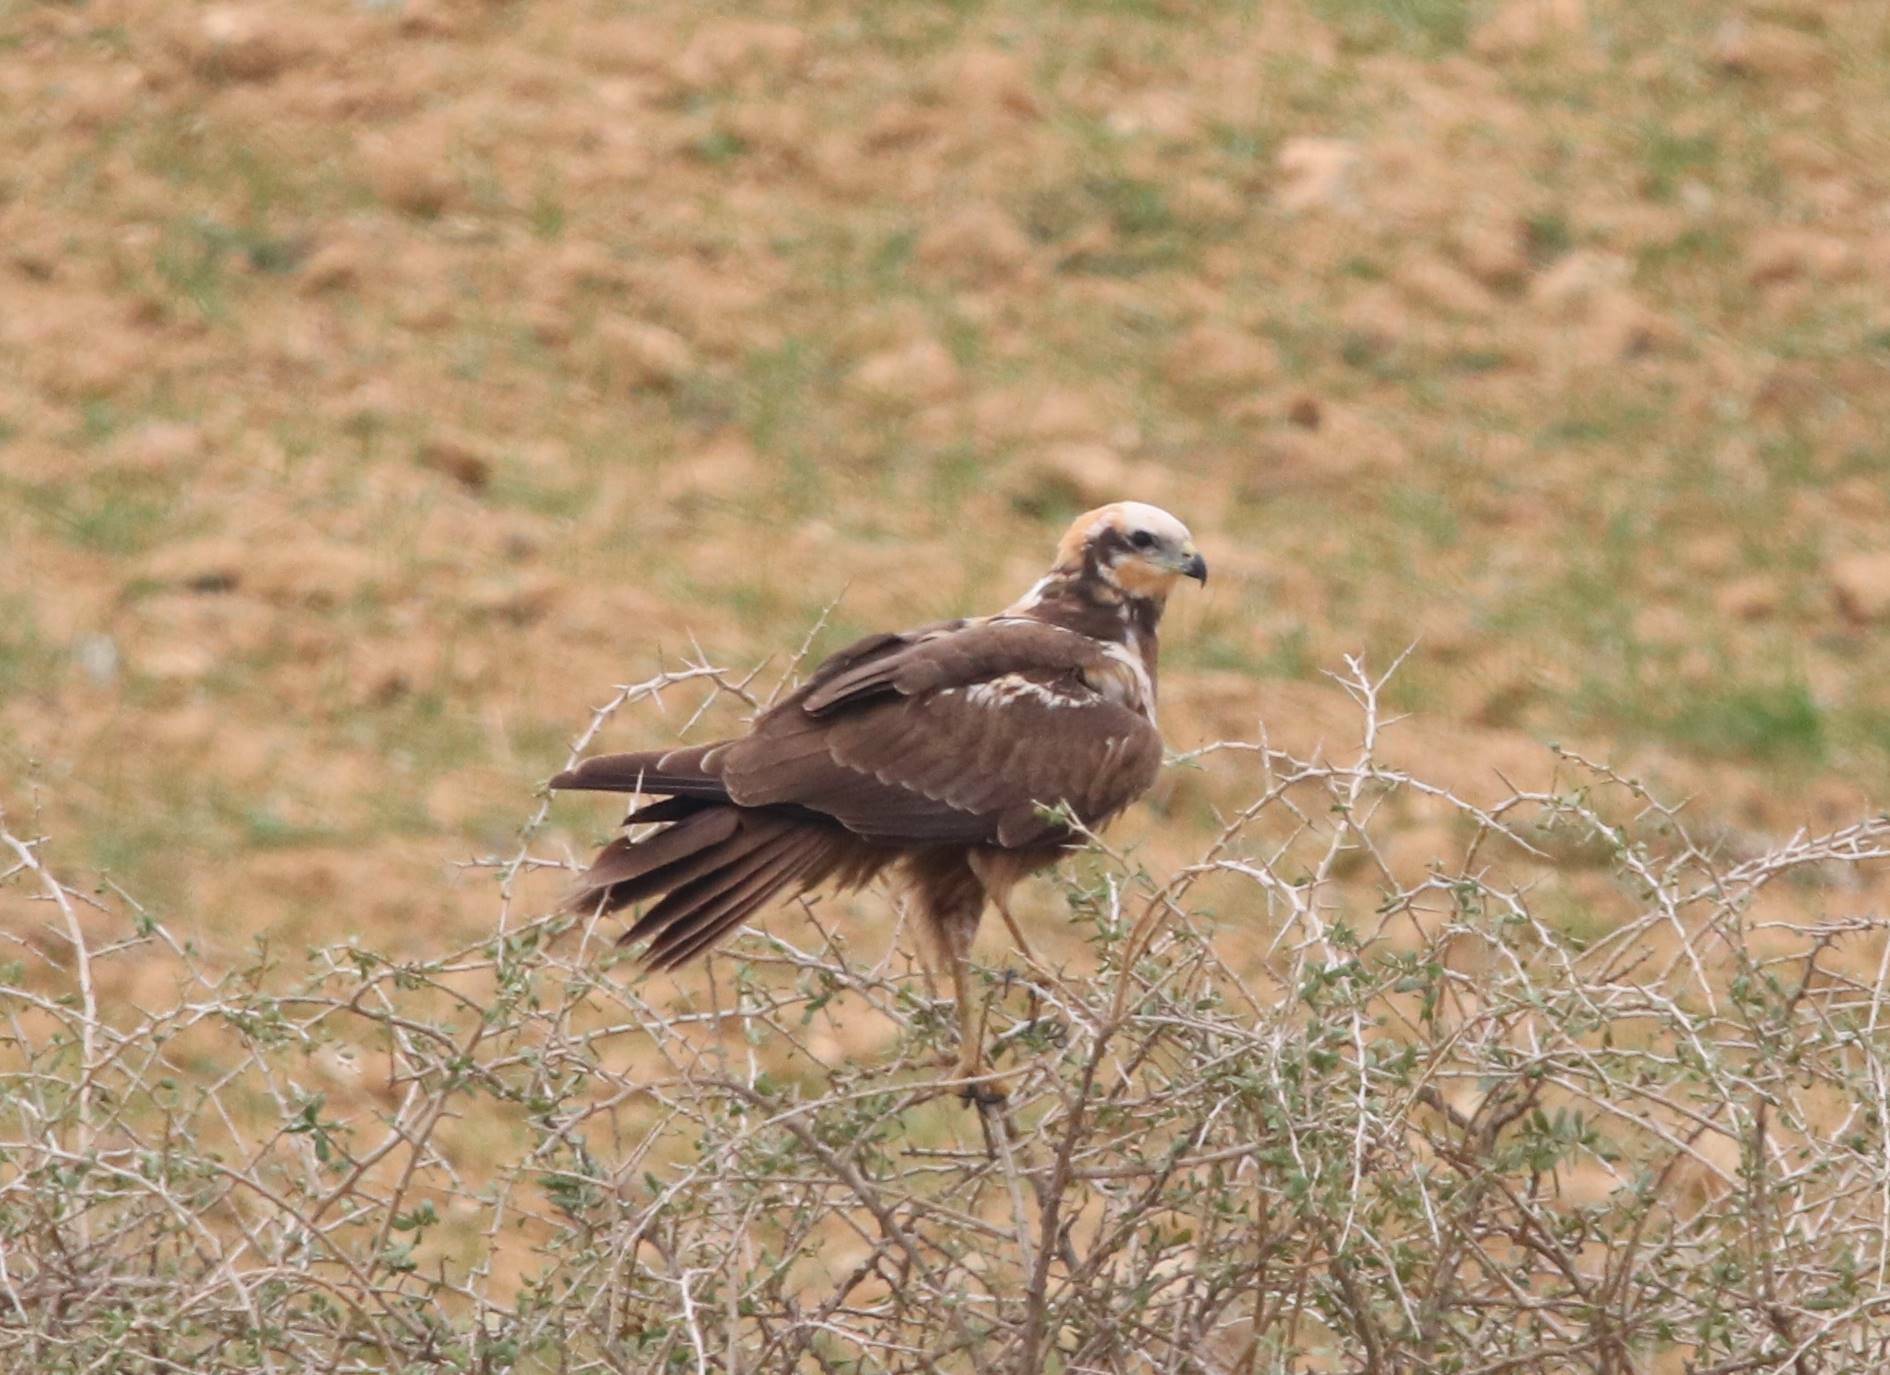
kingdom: Animalia
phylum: Chordata
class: Aves
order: Accipitriformes
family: Accipitridae
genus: Circus
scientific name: Circus aeruginosus
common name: Western marsh harrier
